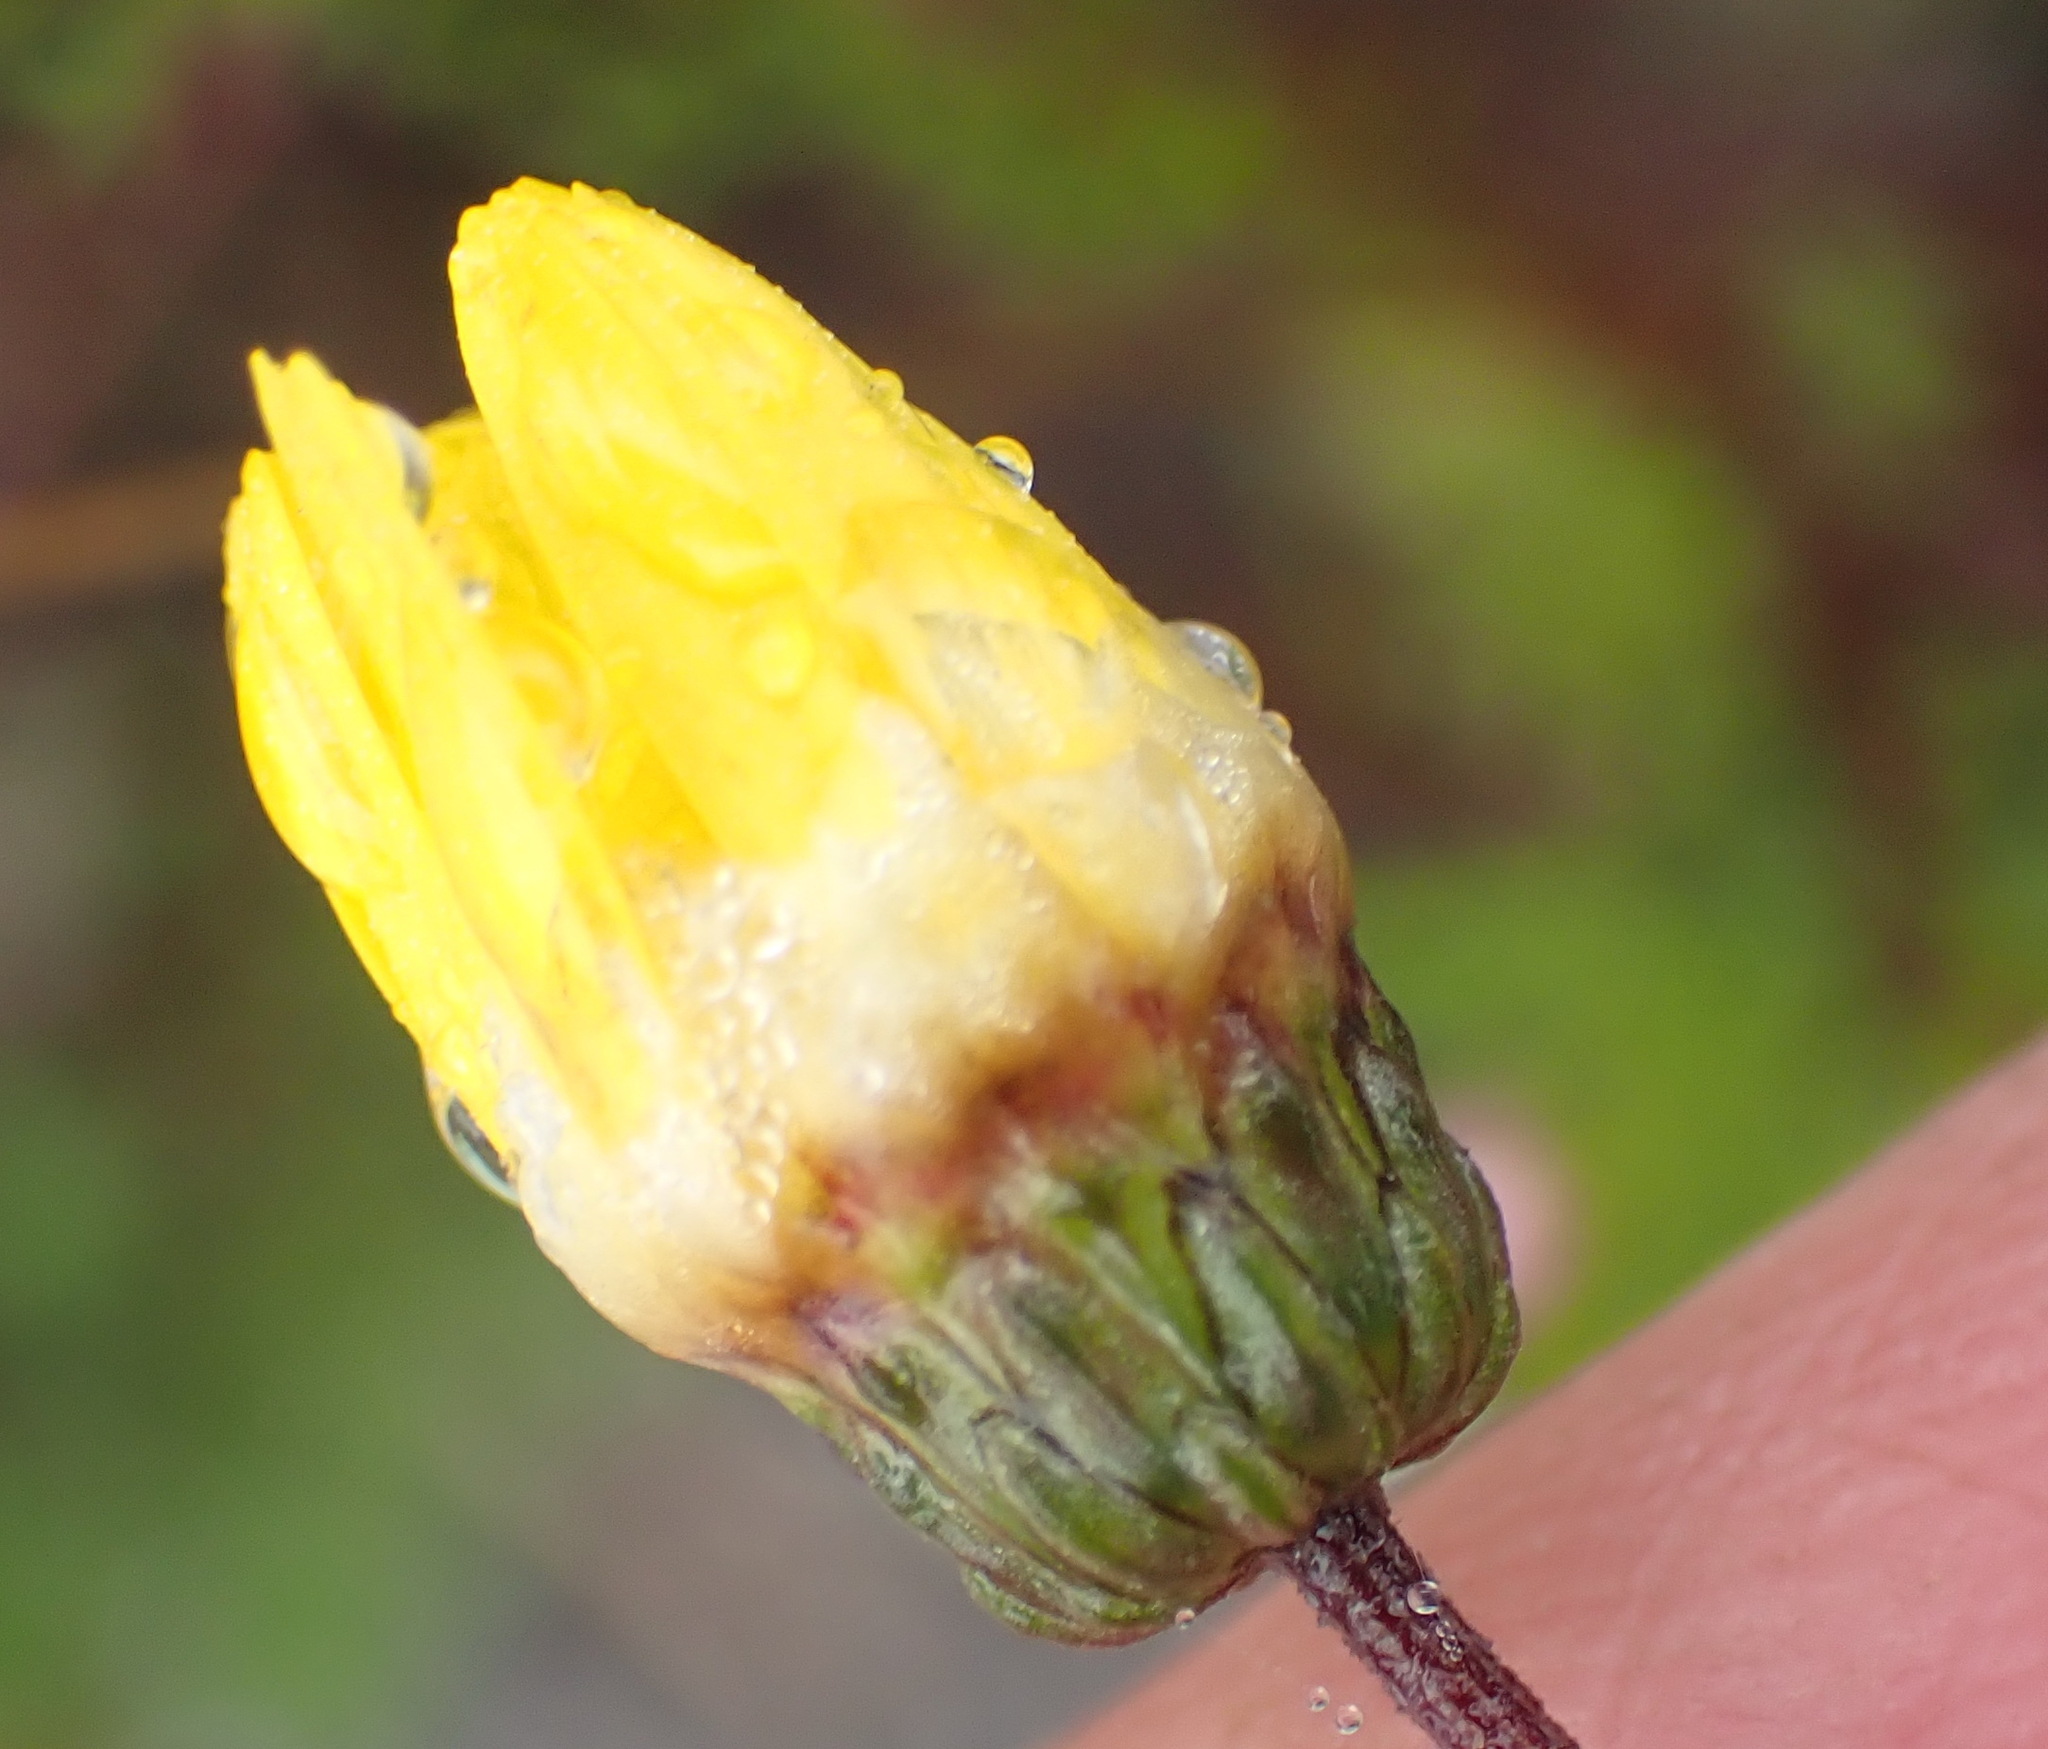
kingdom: Plantae
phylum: Tracheophyta
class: Magnoliopsida
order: Asterales
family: Asteraceae
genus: Ursinia
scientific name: Ursinia paleacea
